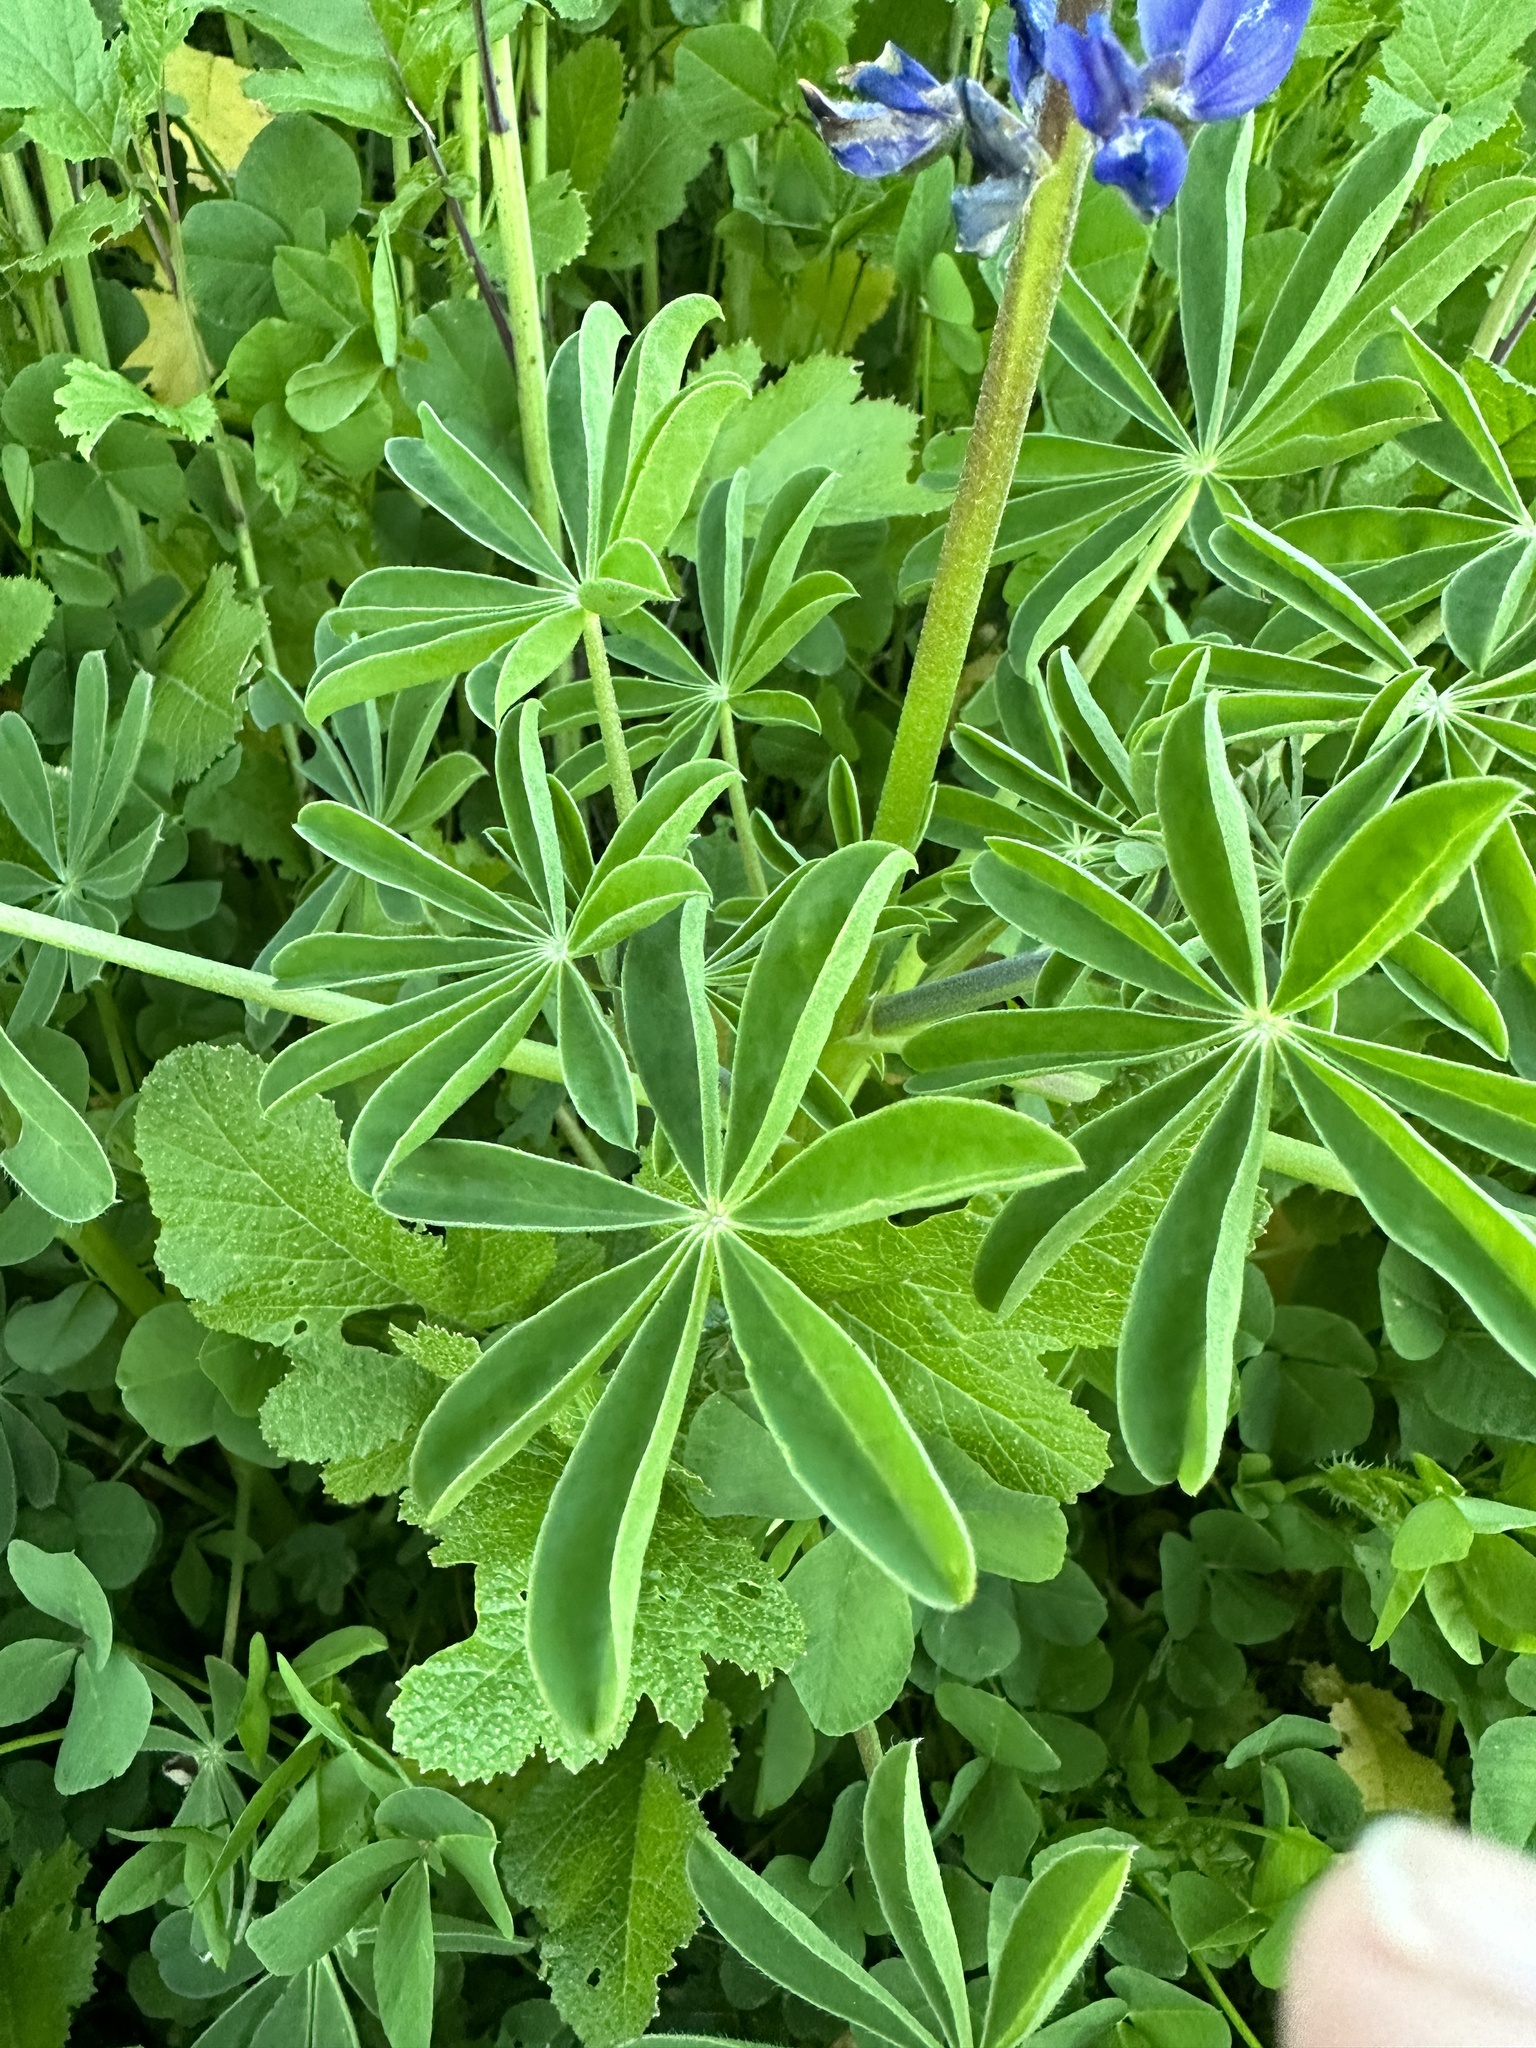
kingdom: Plantae
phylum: Tracheophyta
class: Magnoliopsida
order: Fabales
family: Fabaceae
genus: Lupinus
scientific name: Lupinus succulentus
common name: Arroyo lupine
